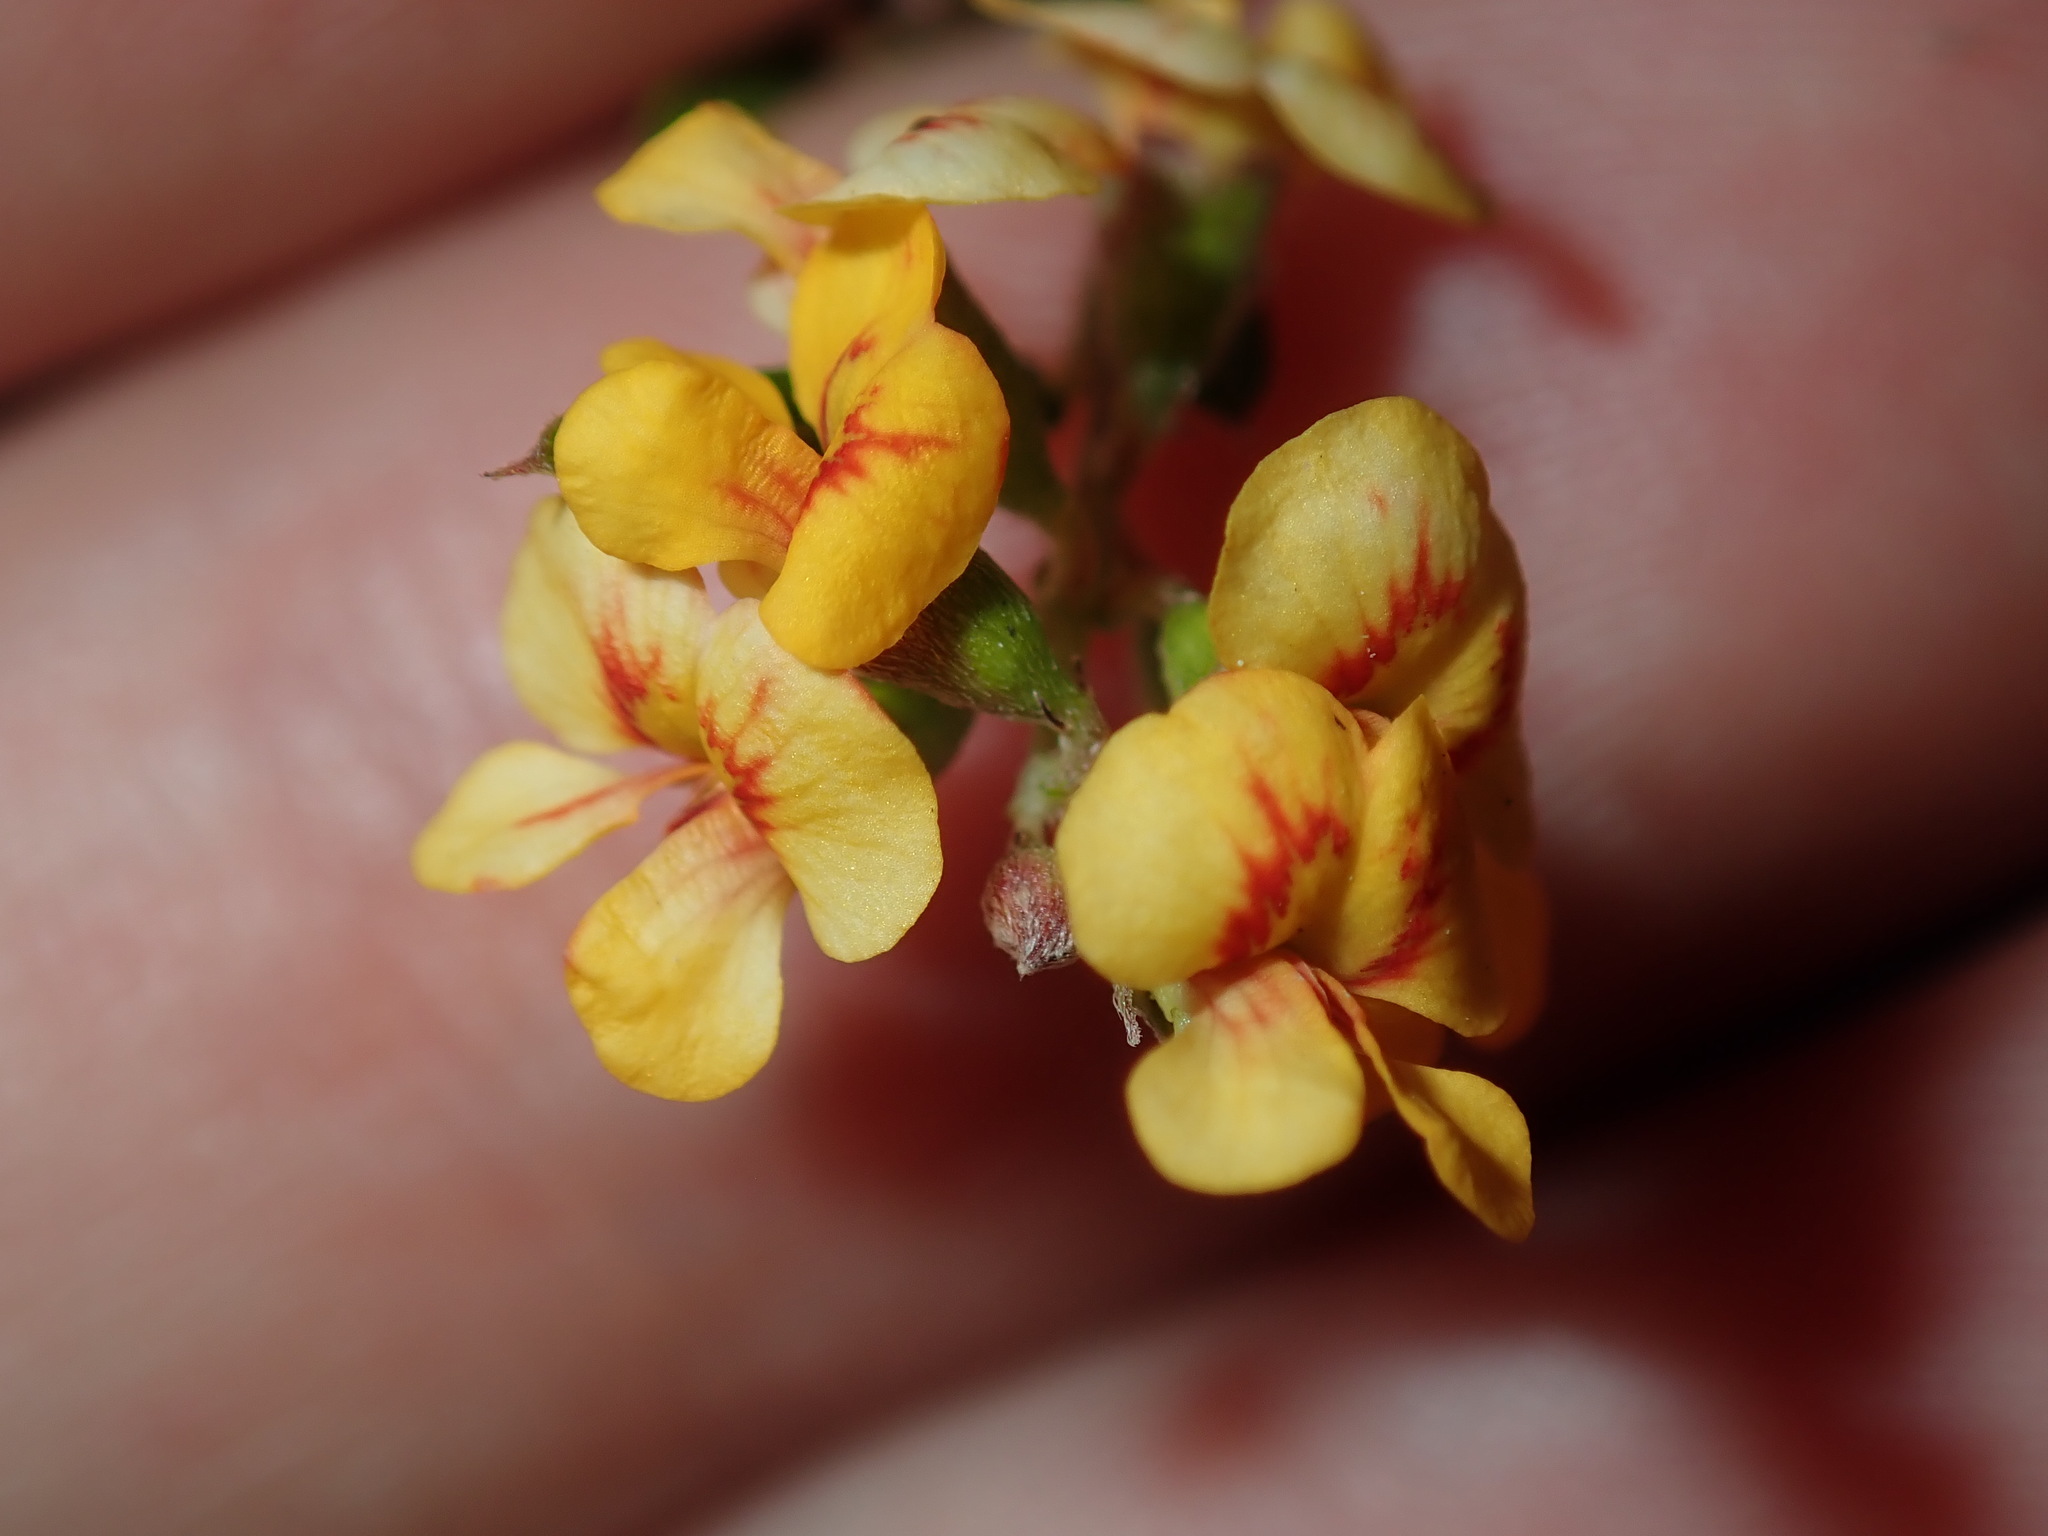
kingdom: Plantae
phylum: Tracheophyta
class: Magnoliopsida
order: Fabales
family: Fabaceae
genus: Chorizema
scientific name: Chorizema parviflorum
